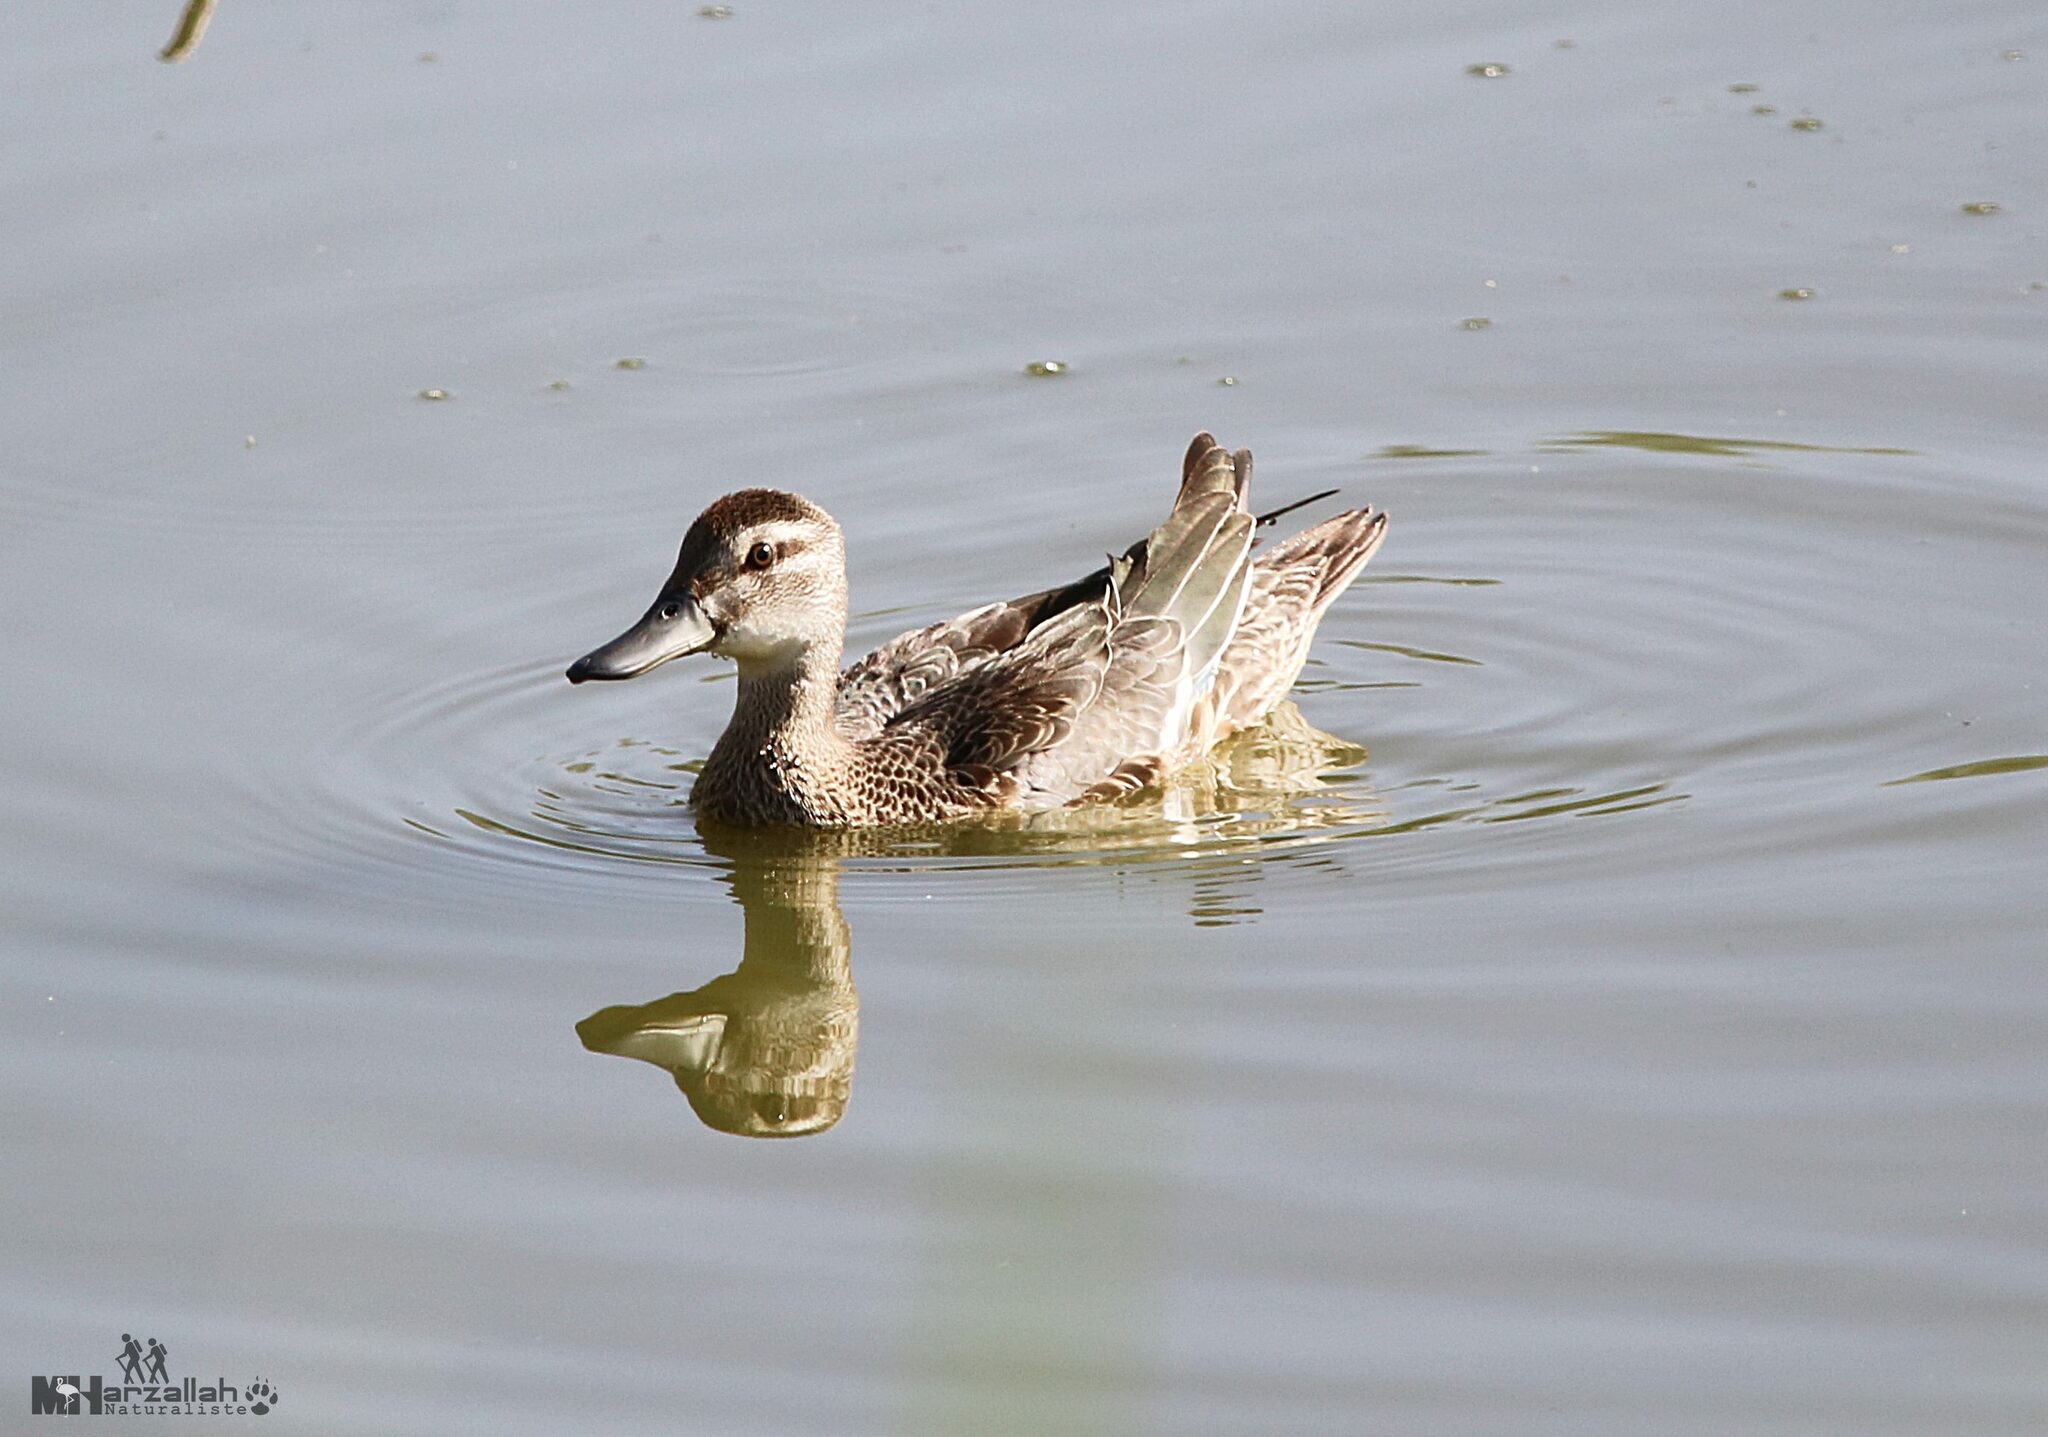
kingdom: Animalia
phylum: Chordata
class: Aves
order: Anseriformes
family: Anatidae
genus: Spatula
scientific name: Spatula querquedula
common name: Garganey
